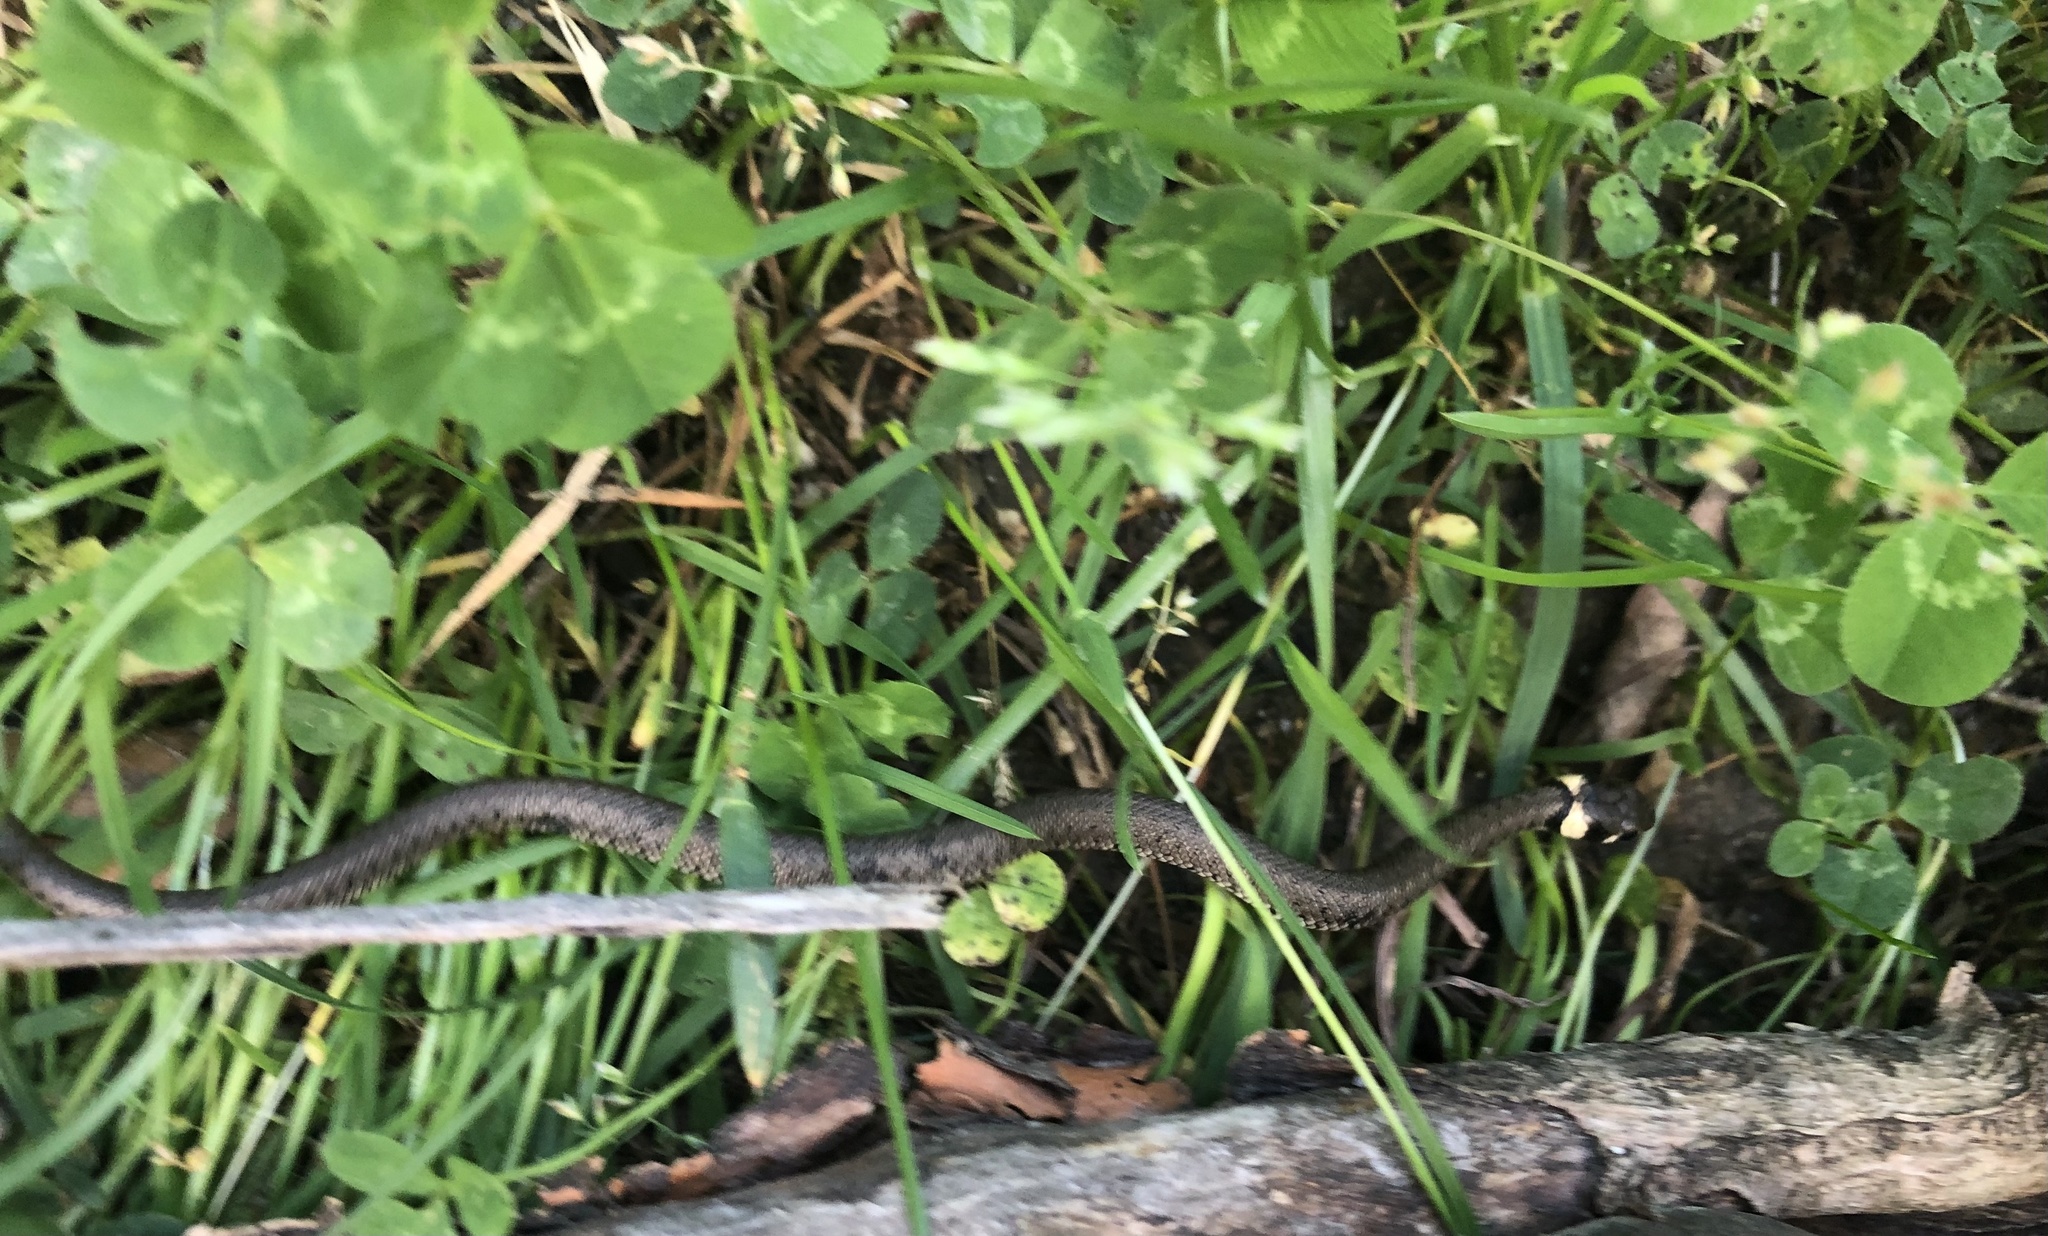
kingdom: Animalia
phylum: Chordata
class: Squamata
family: Colubridae
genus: Natrix
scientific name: Natrix natrix
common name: Grass snake
